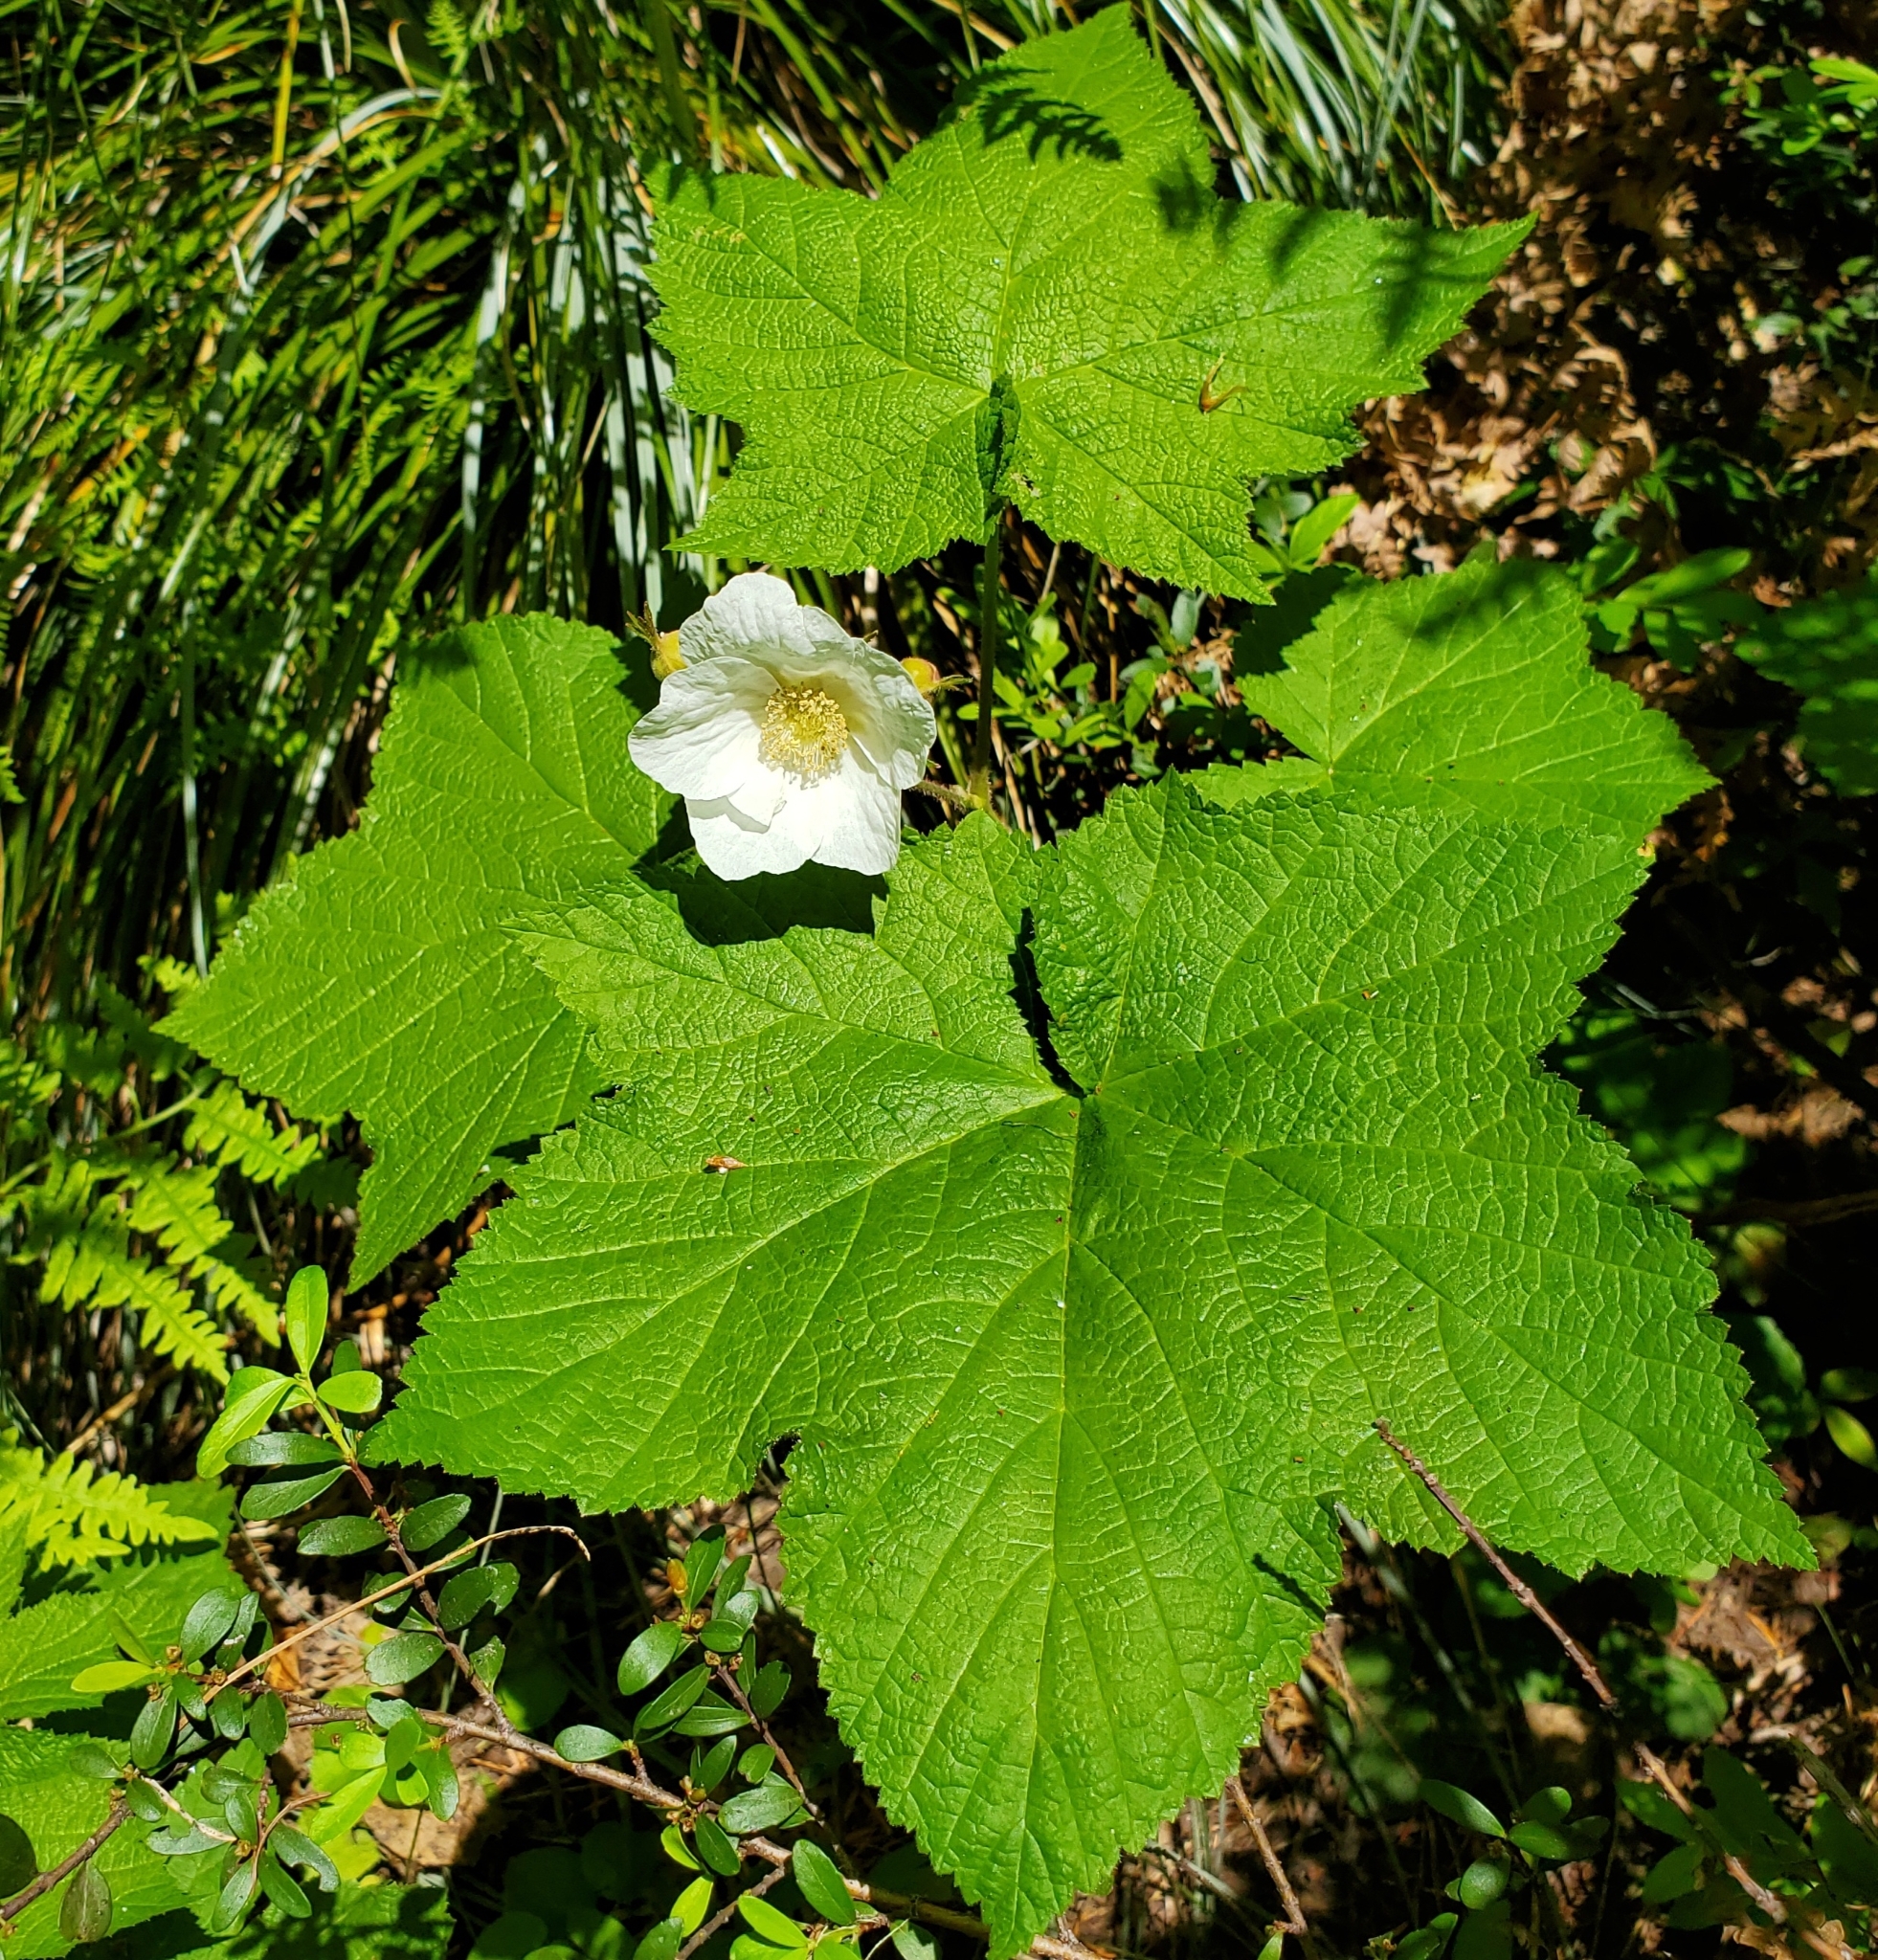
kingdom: Plantae
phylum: Tracheophyta
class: Magnoliopsida
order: Rosales
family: Rosaceae
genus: Rubus
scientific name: Rubus parviflorus
